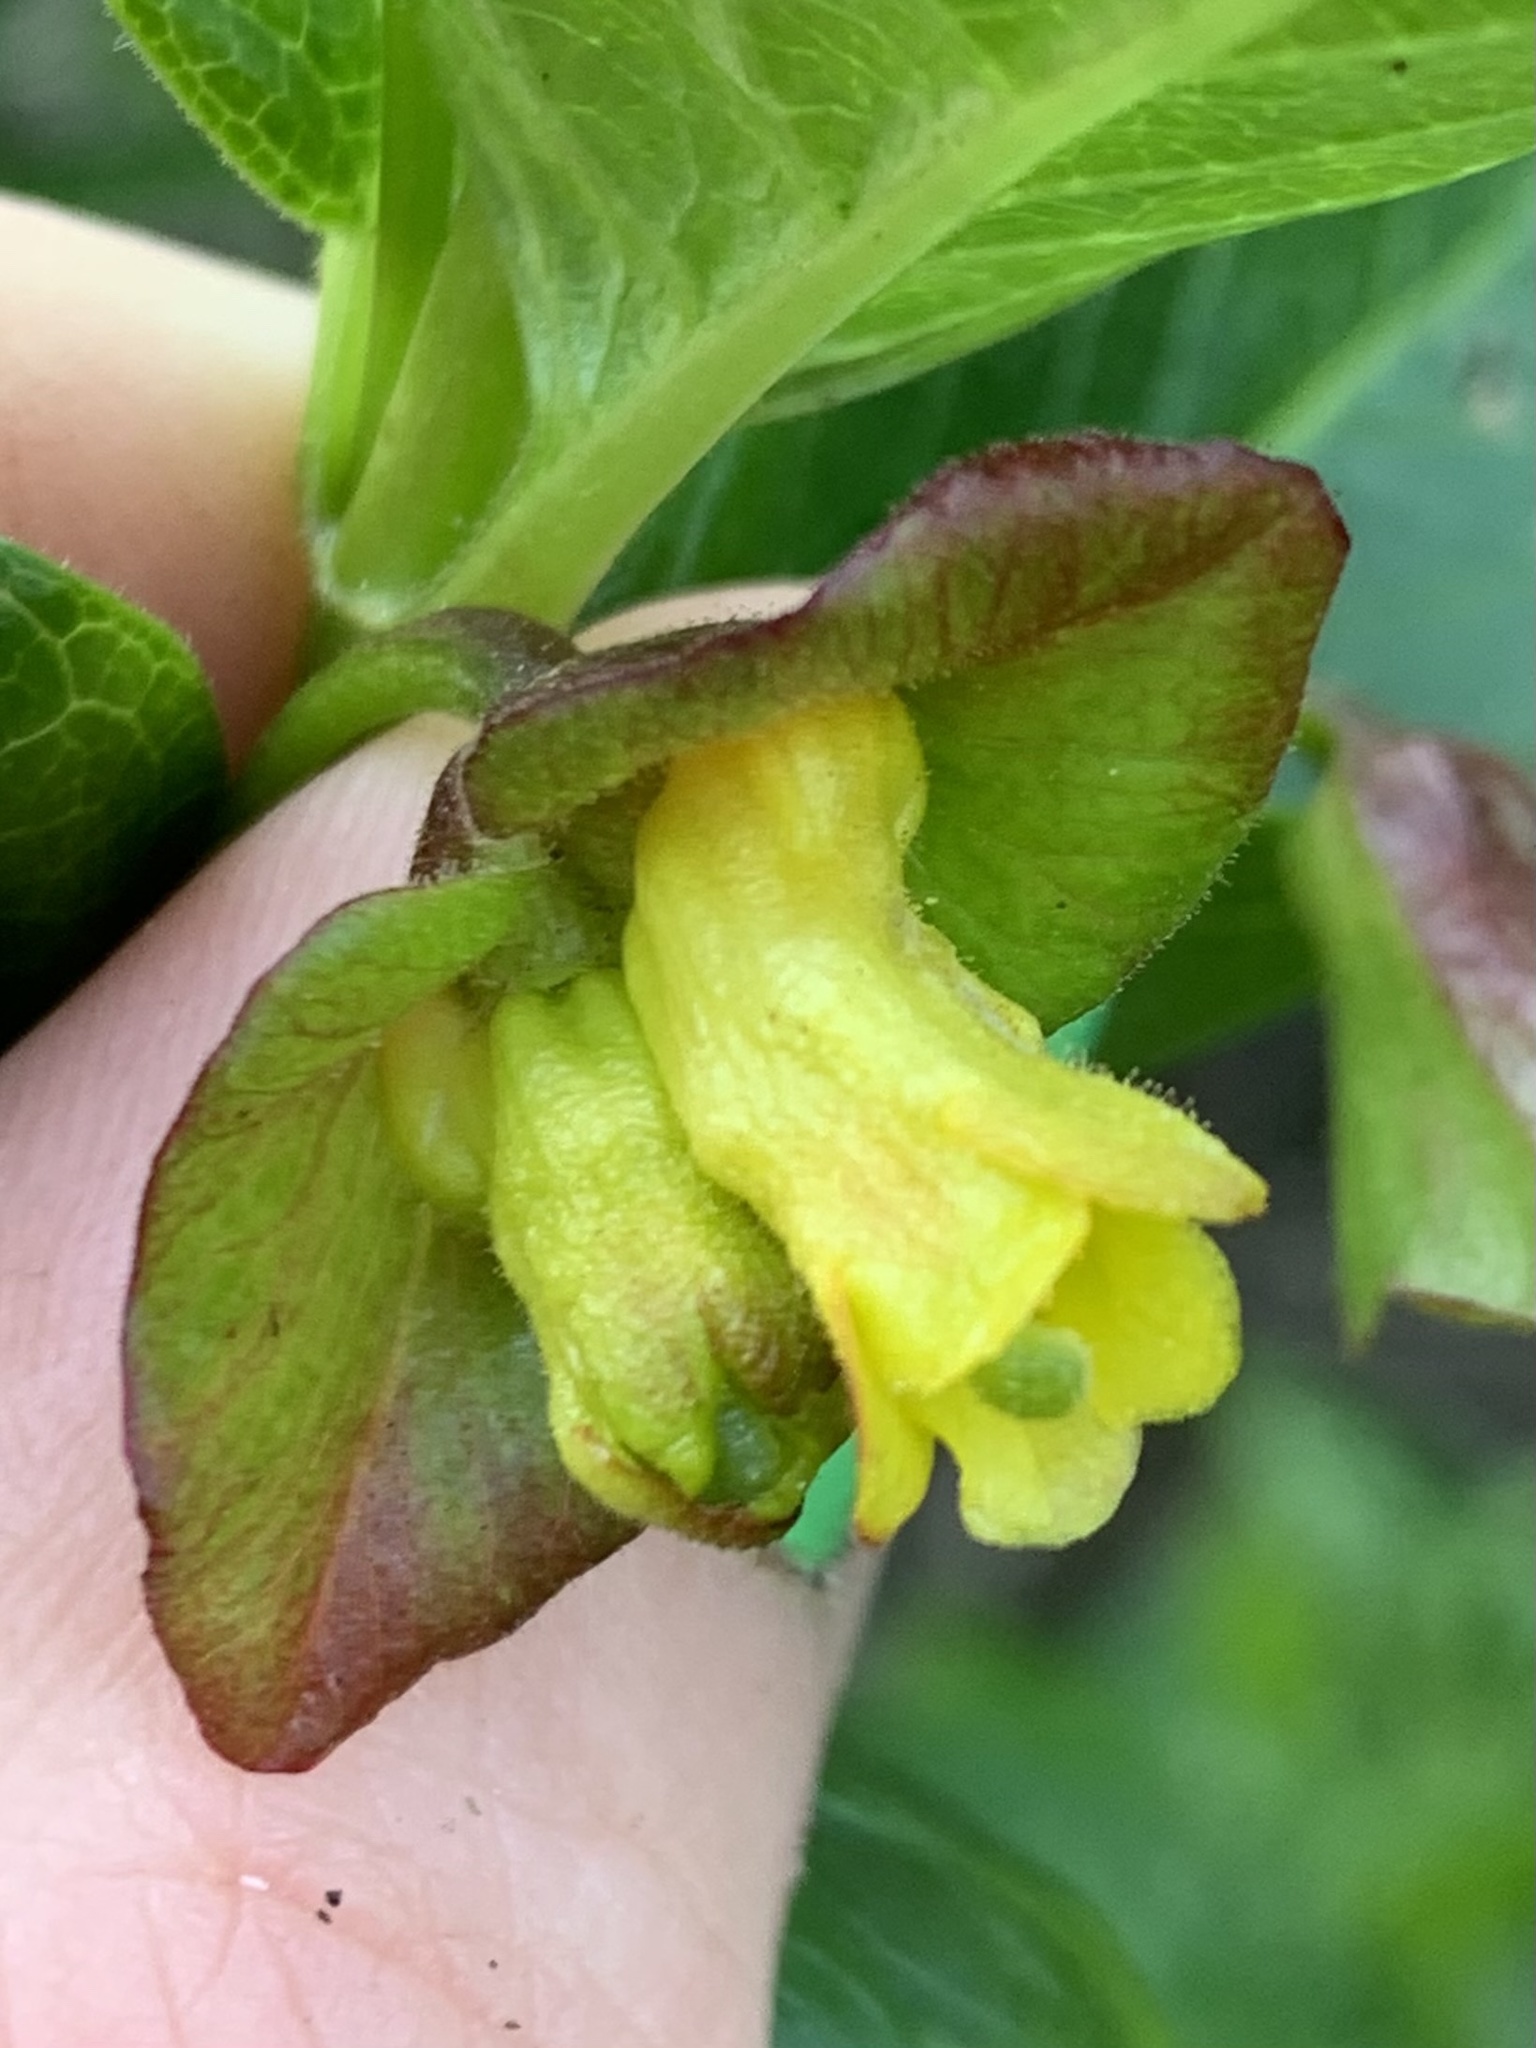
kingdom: Plantae
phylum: Tracheophyta
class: Magnoliopsida
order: Dipsacales
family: Caprifoliaceae
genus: Lonicera
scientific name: Lonicera involucrata
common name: Californian honeysuckle
